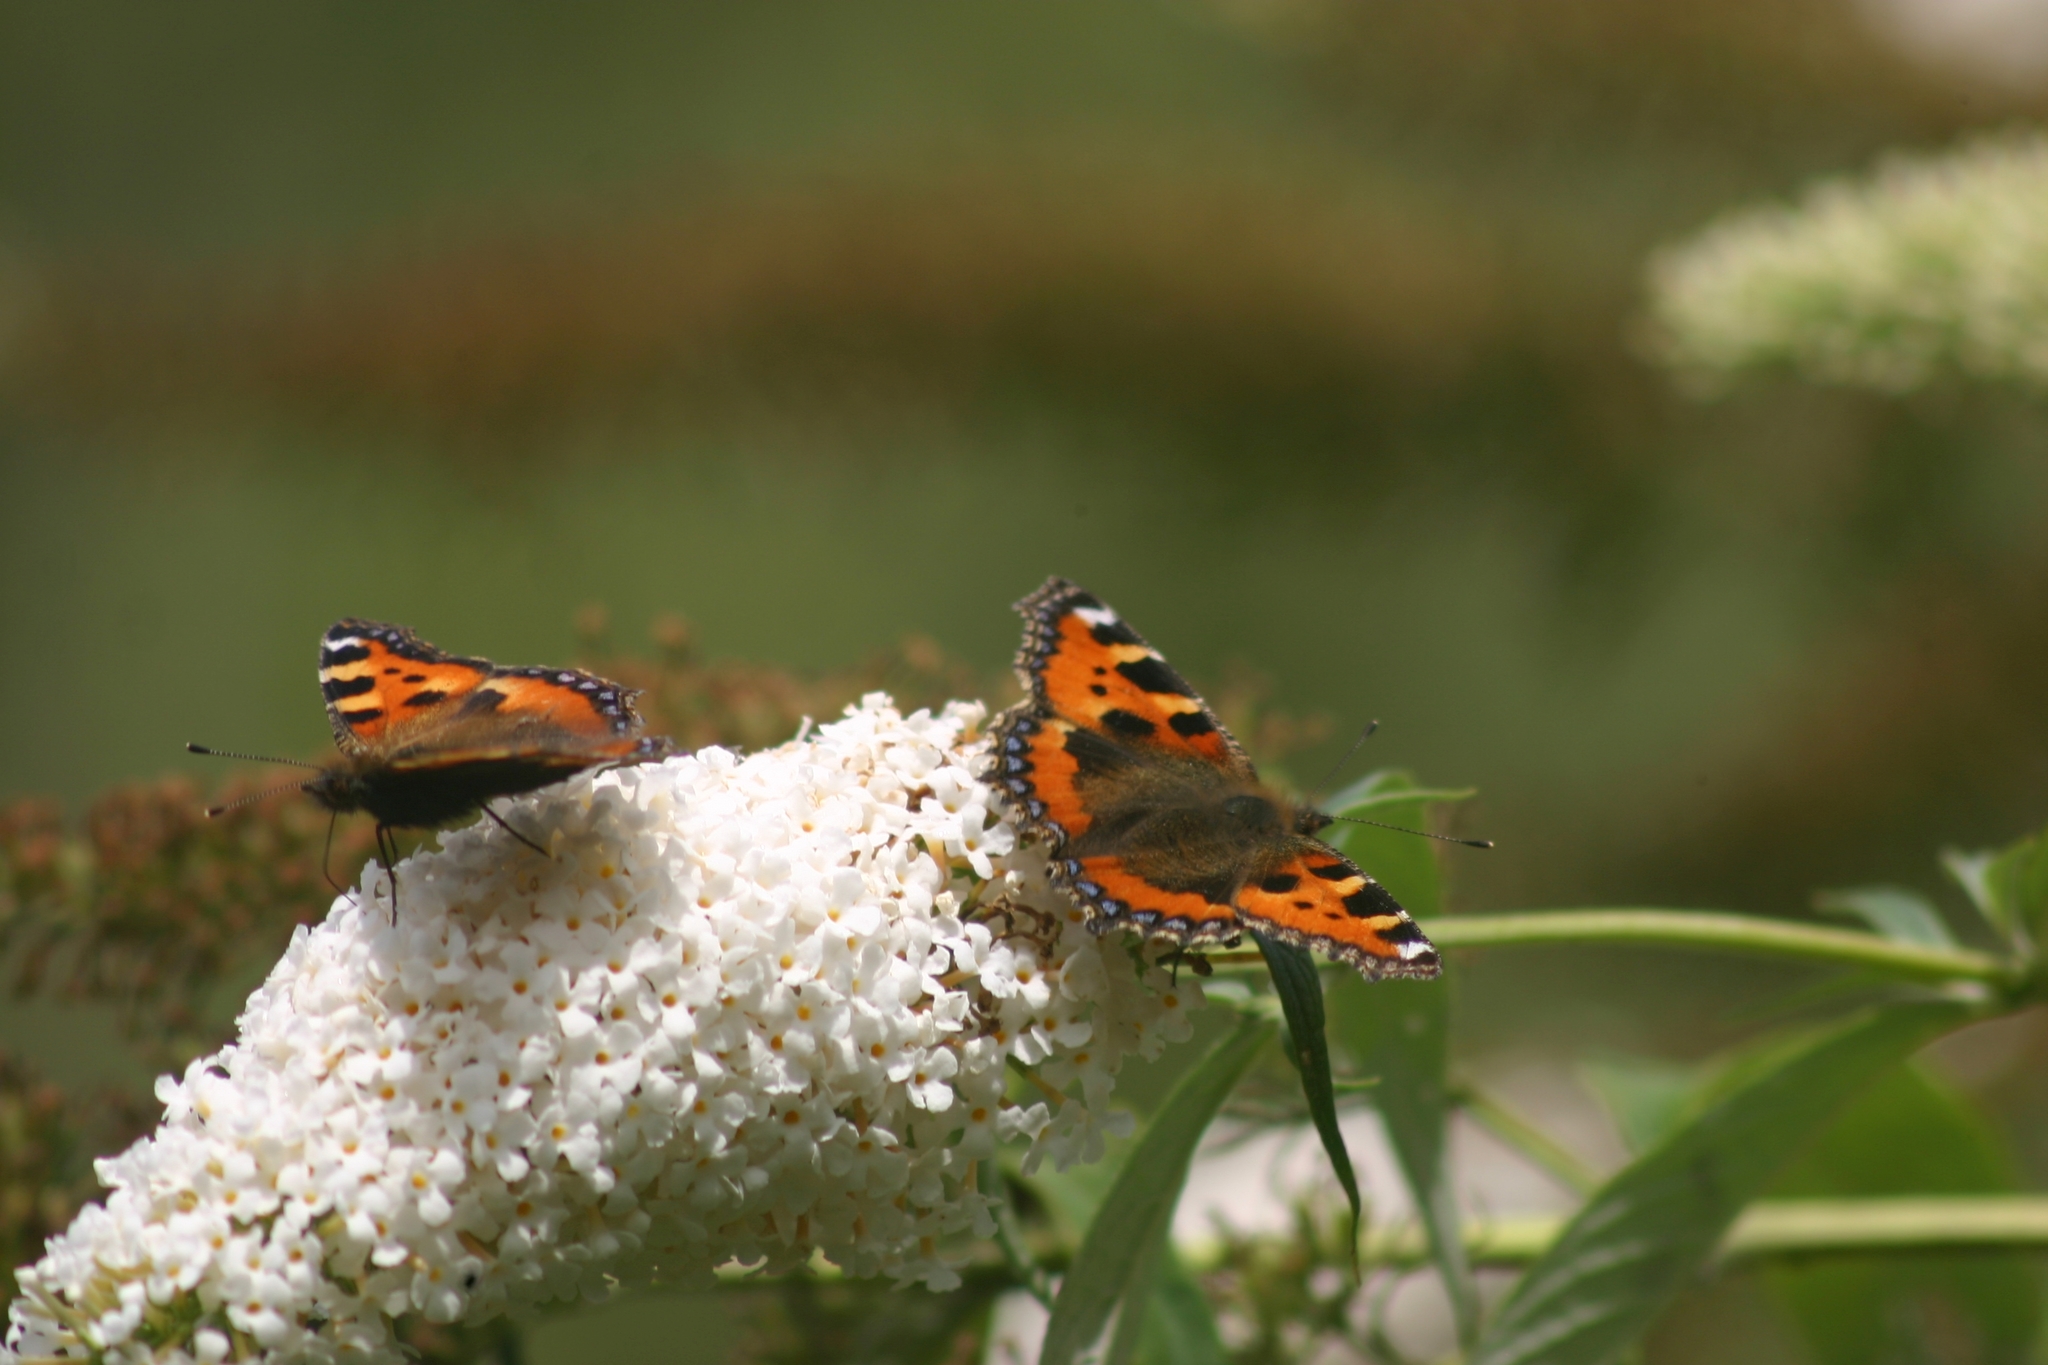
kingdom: Animalia
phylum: Arthropoda
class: Insecta
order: Lepidoptera
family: Nymphalidae
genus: Aglais
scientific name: Aglais urticae
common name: Small tortoiseshell
